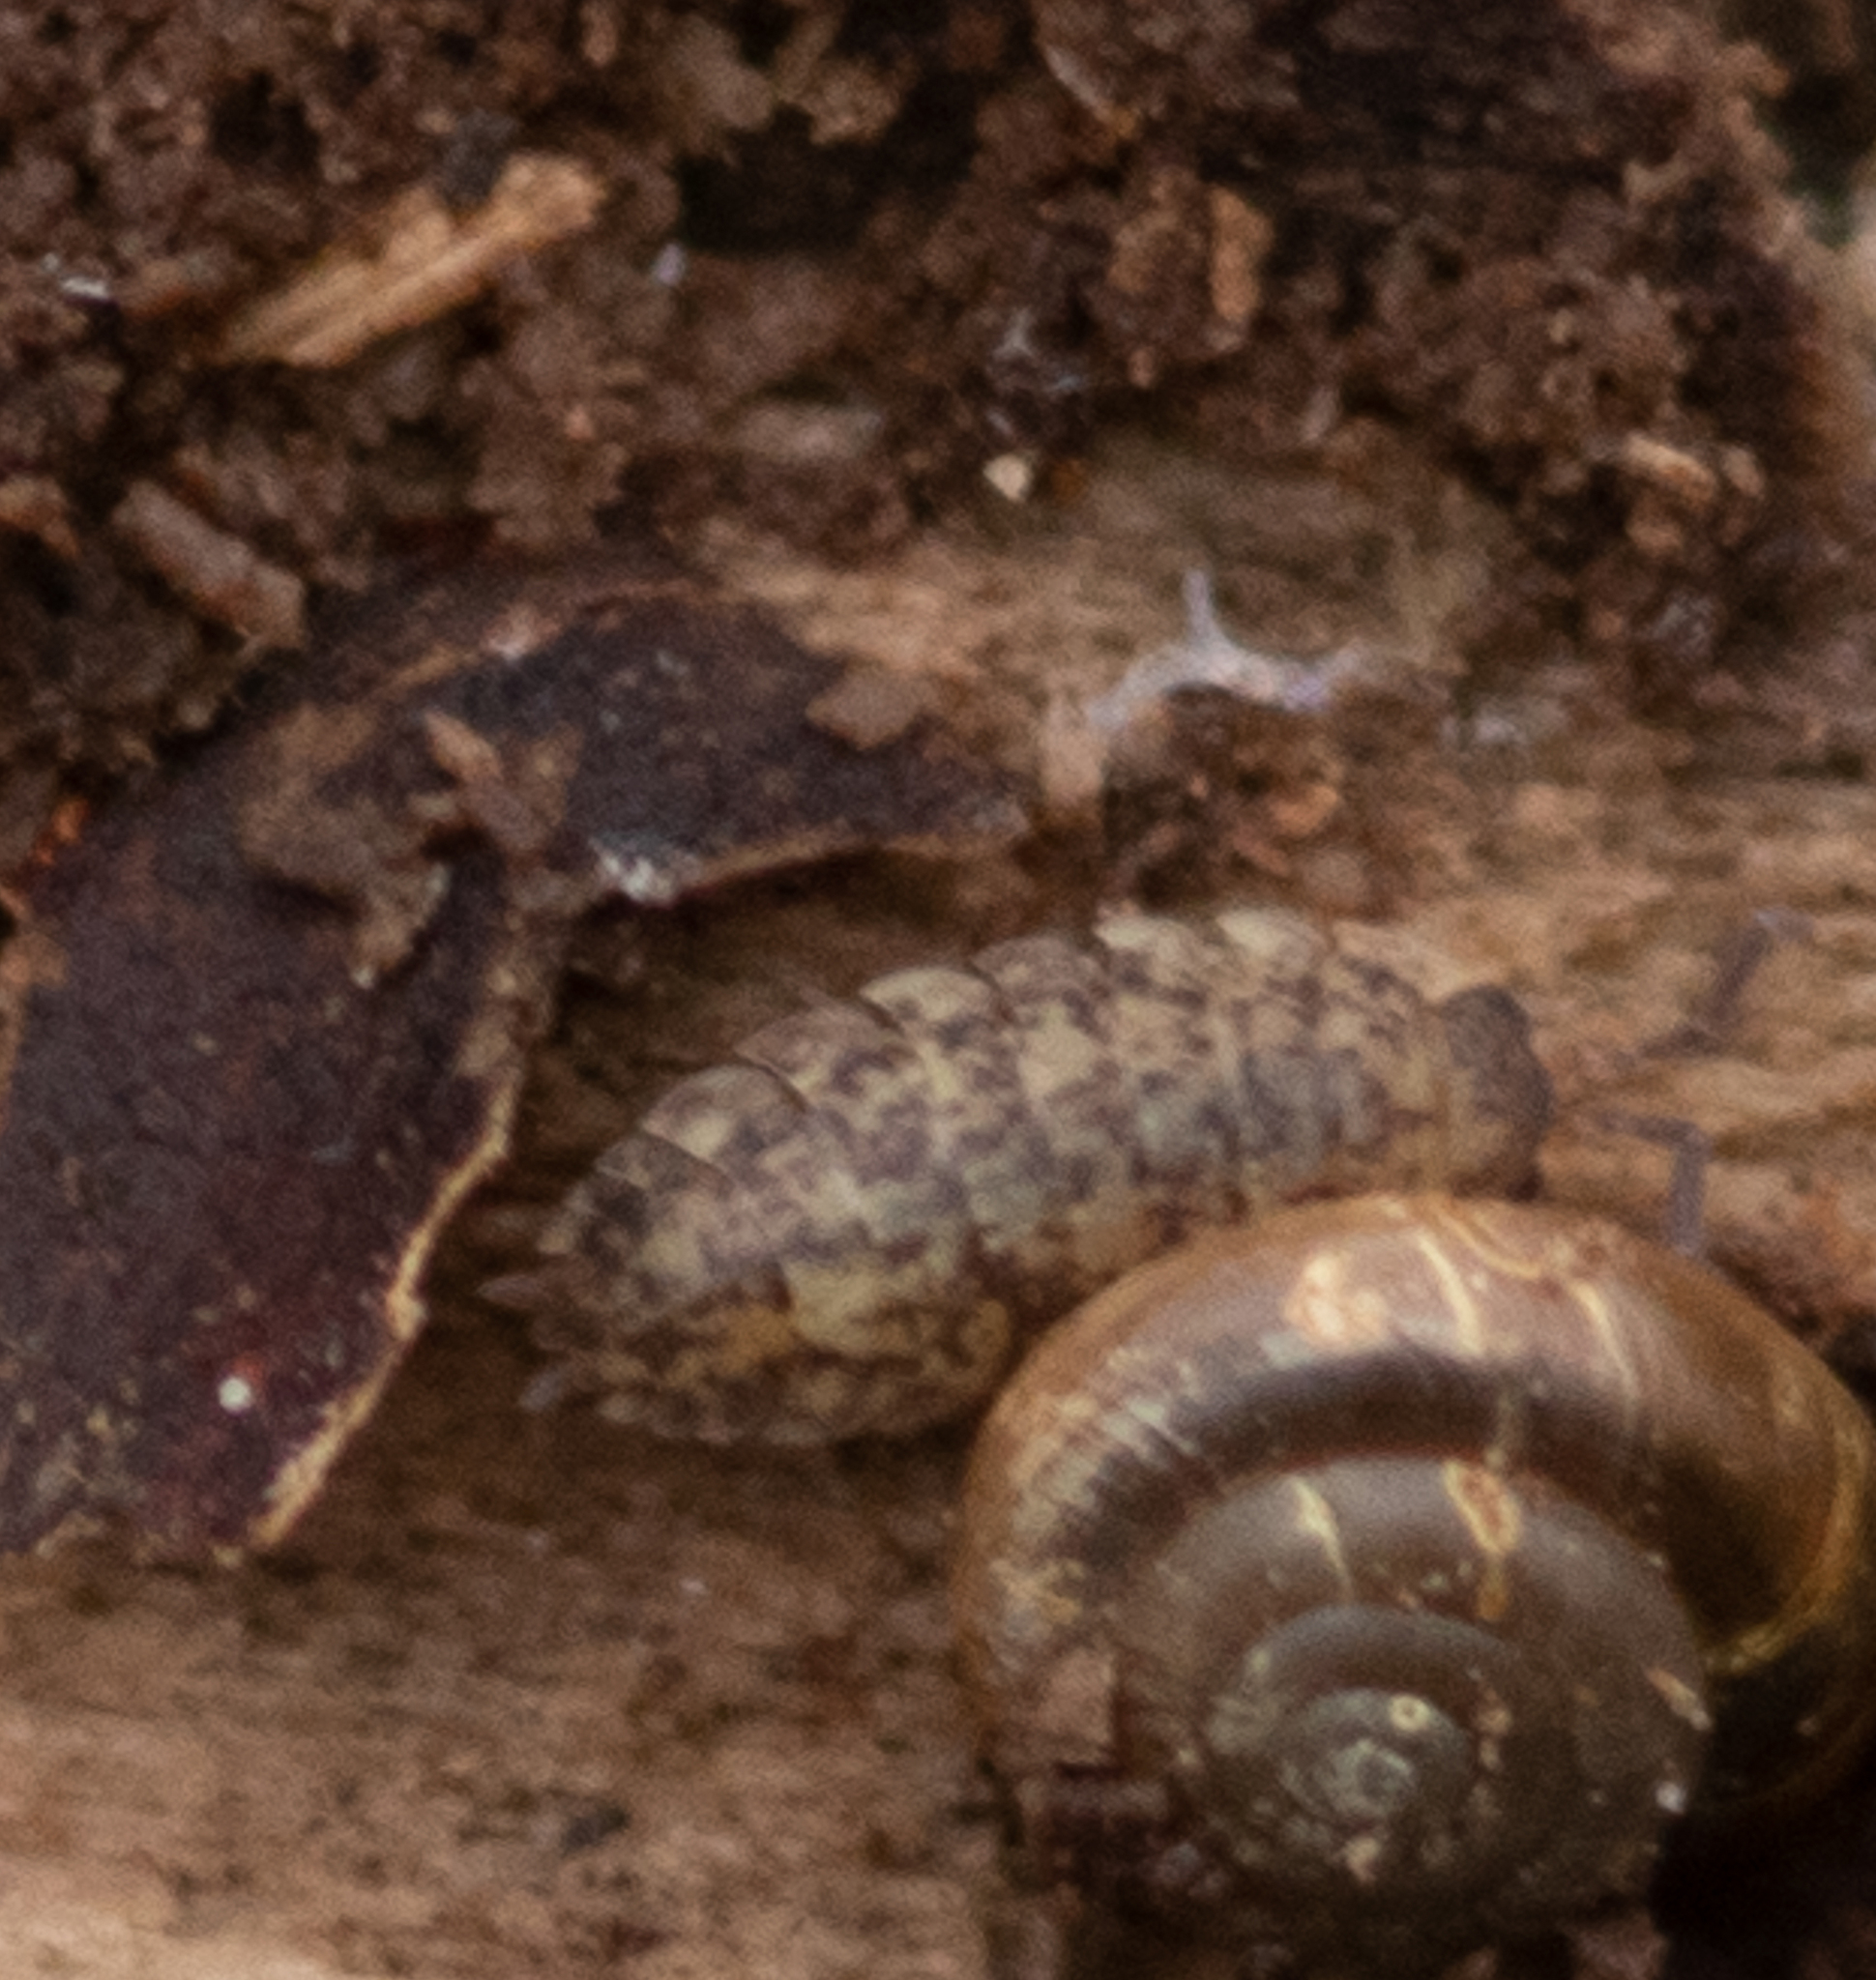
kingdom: Animalia
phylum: Arthropoda
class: Malacostraca
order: Isopoda
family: Porcellionidae
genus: Porcellio
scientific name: Porcellio scaber
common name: Common rough woodlouse
